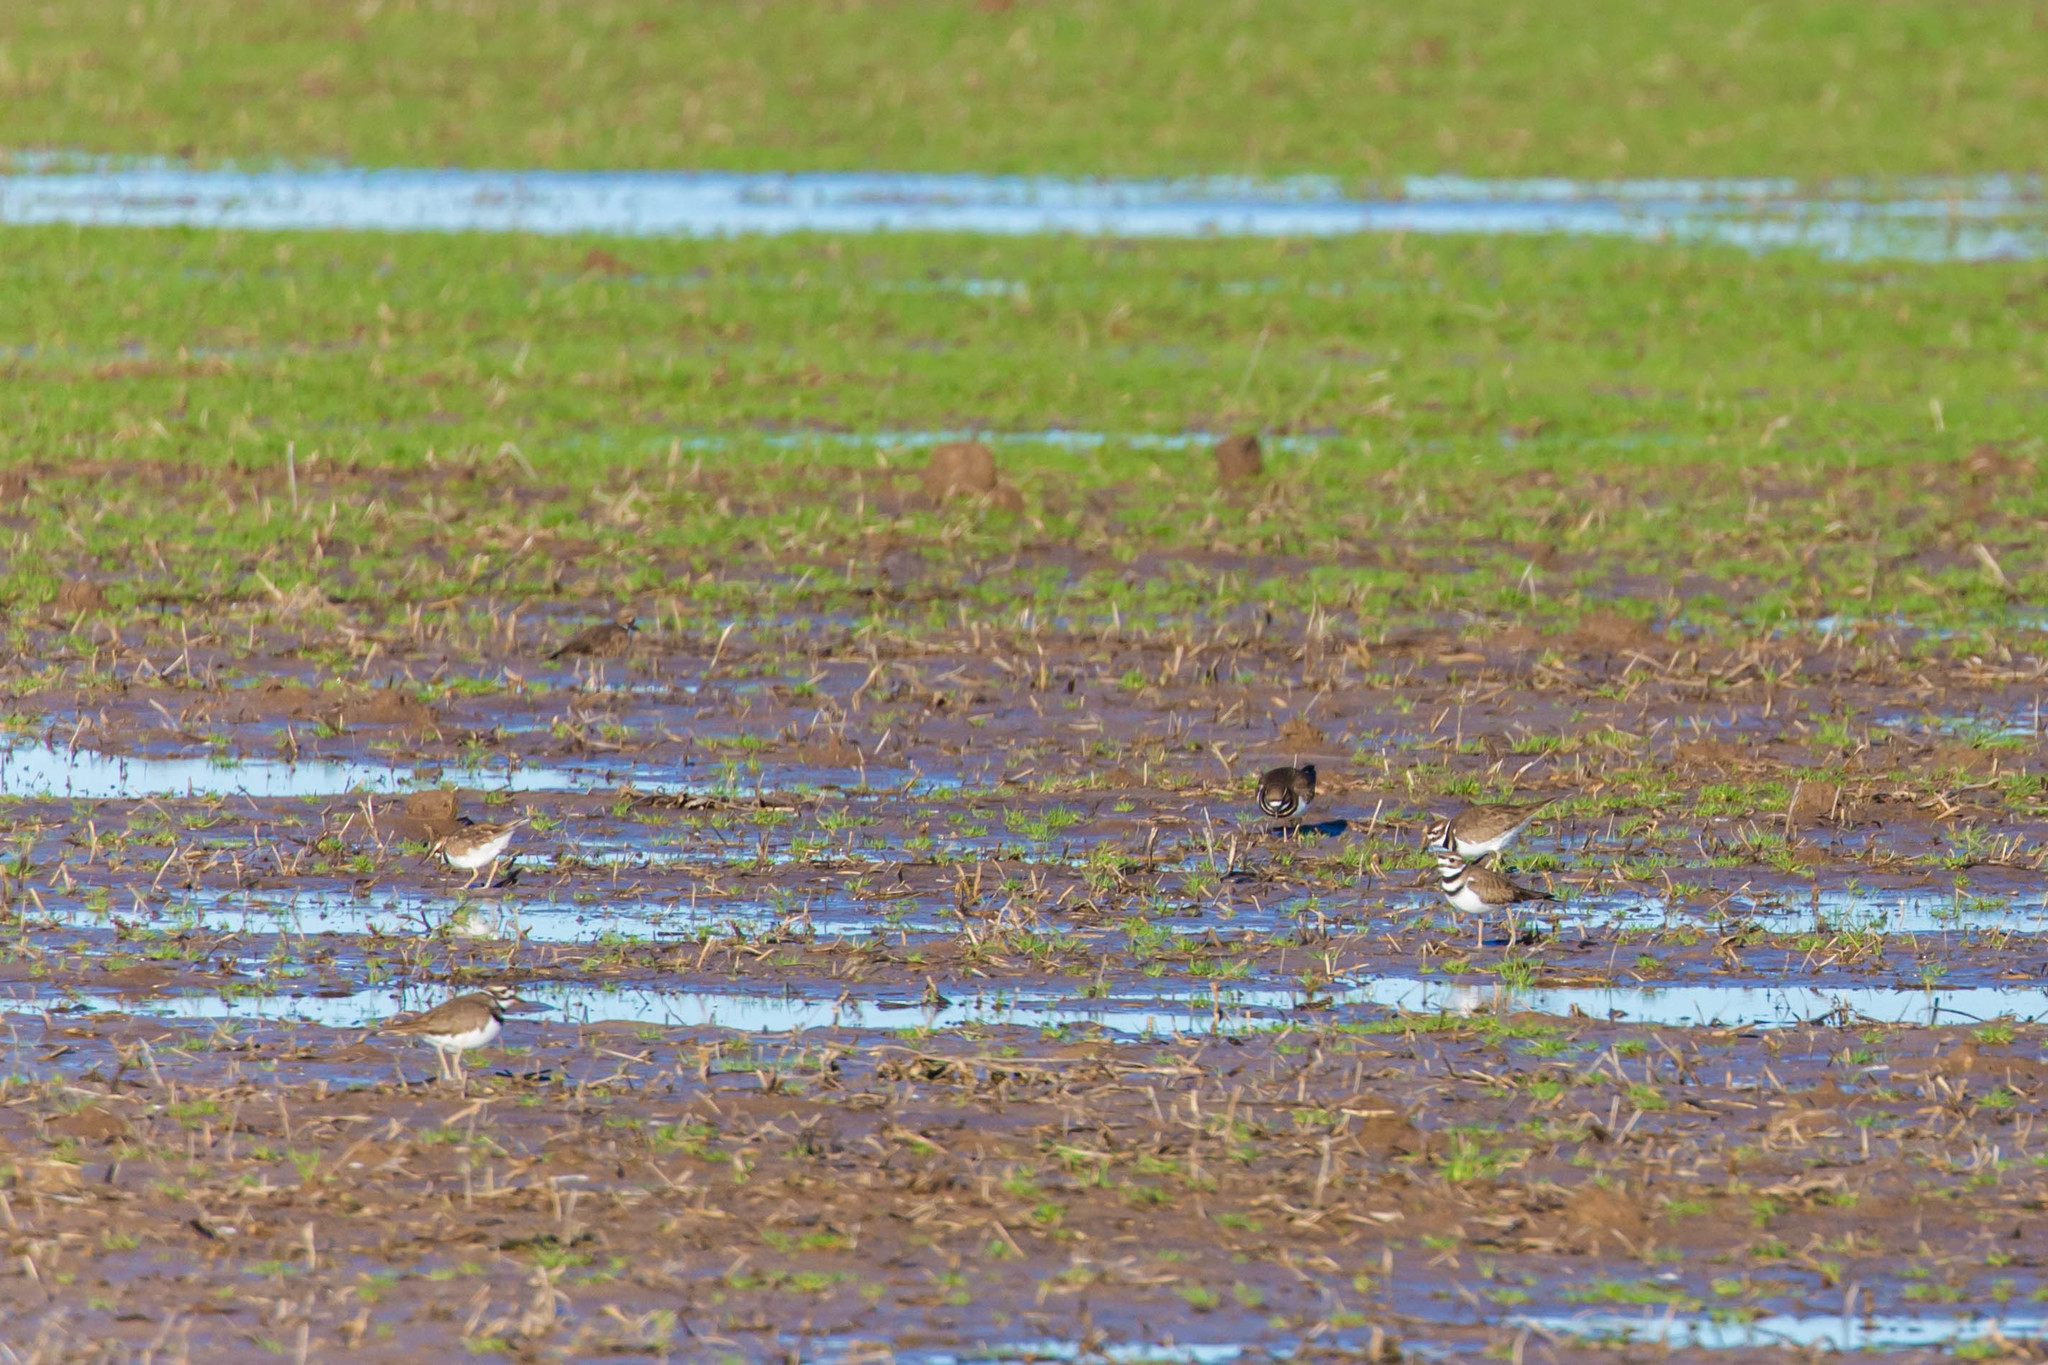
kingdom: Animalia
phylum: Chordata
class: Aves
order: Charadriiformes
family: Charadriidae
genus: Charadrius
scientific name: Charadrius vociferus
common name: Killdeer
